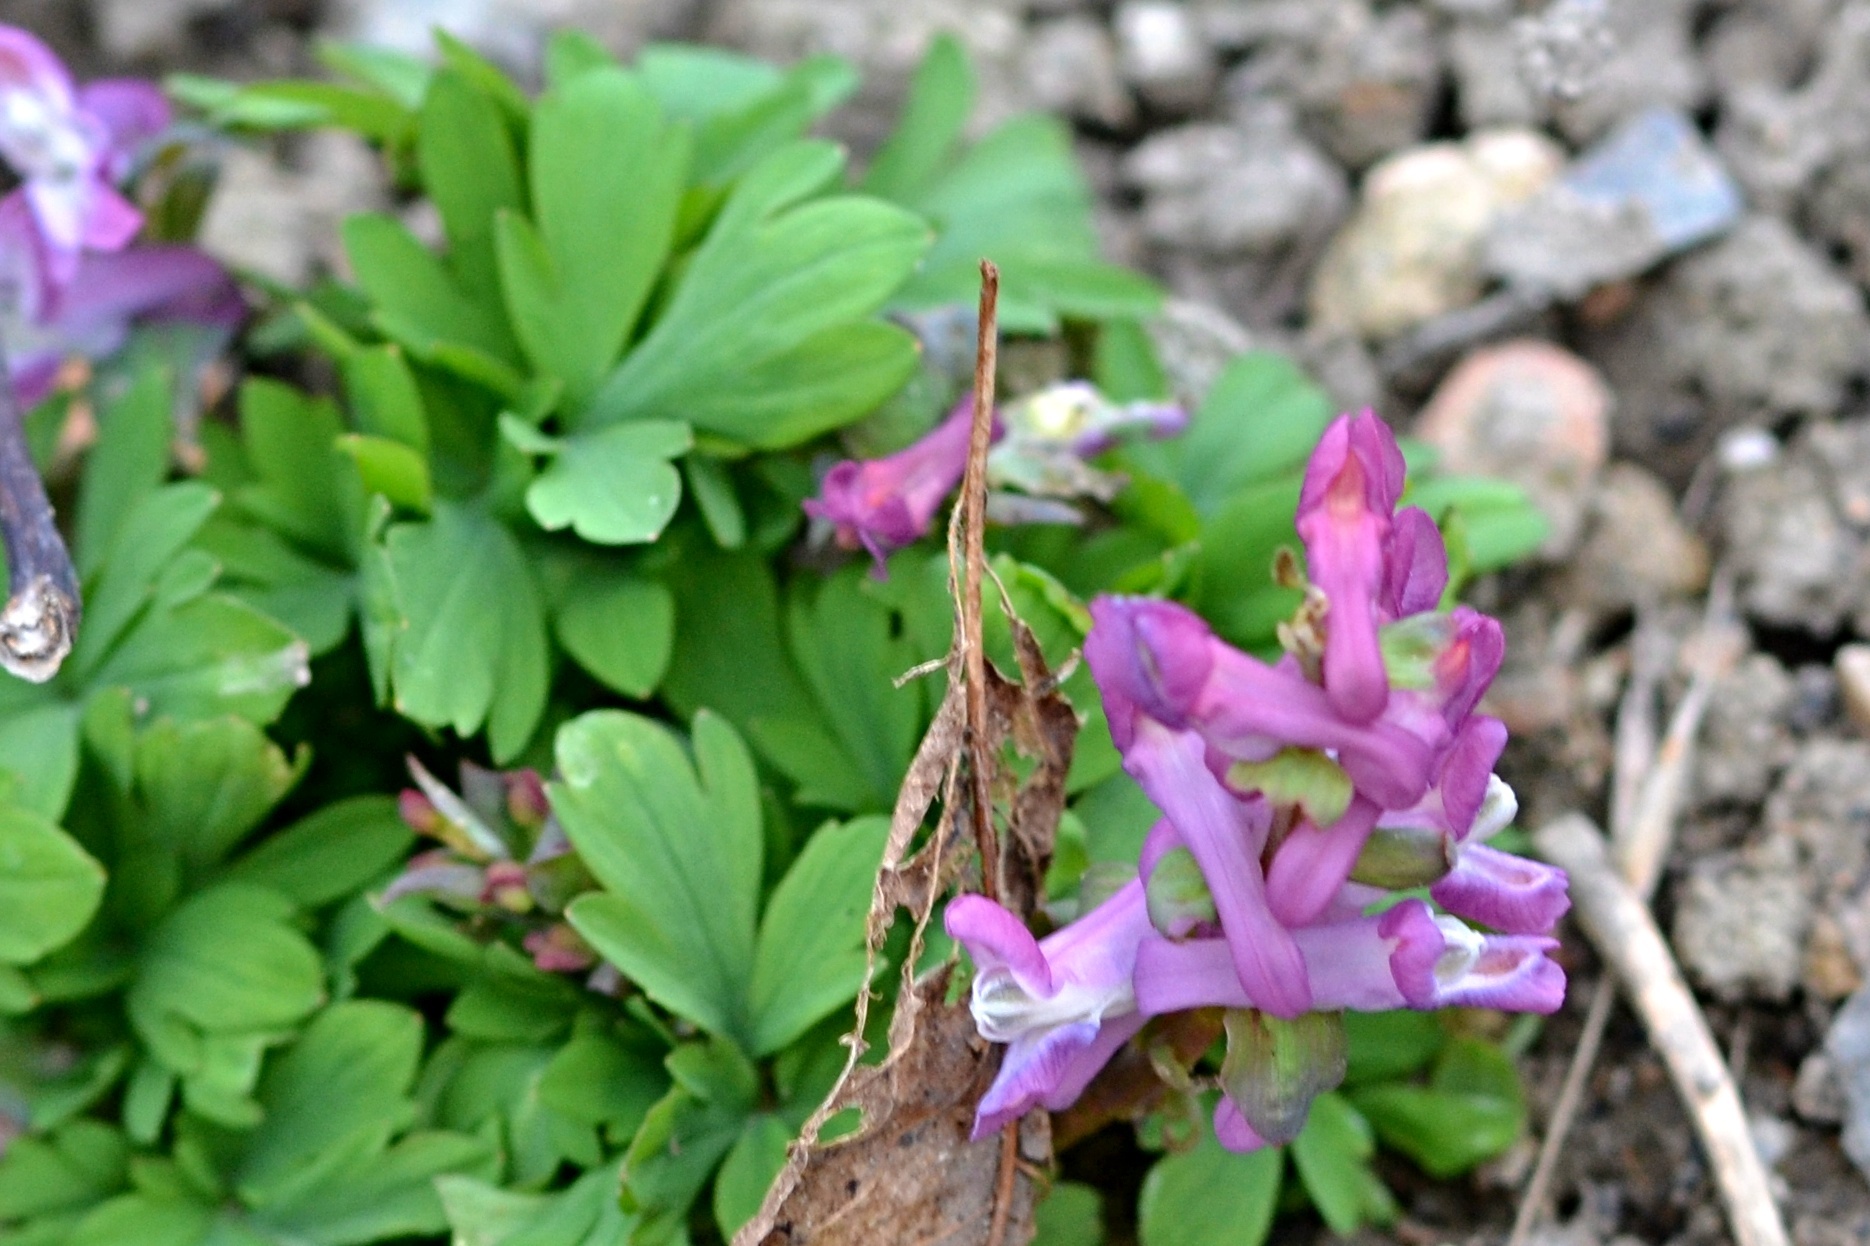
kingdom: Plantae
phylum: Tracheophyta
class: Magnoliopsida
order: Ranunculales
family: Papaveraceae
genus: Corydalis
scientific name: Corydalis cava
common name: Hollowroot
